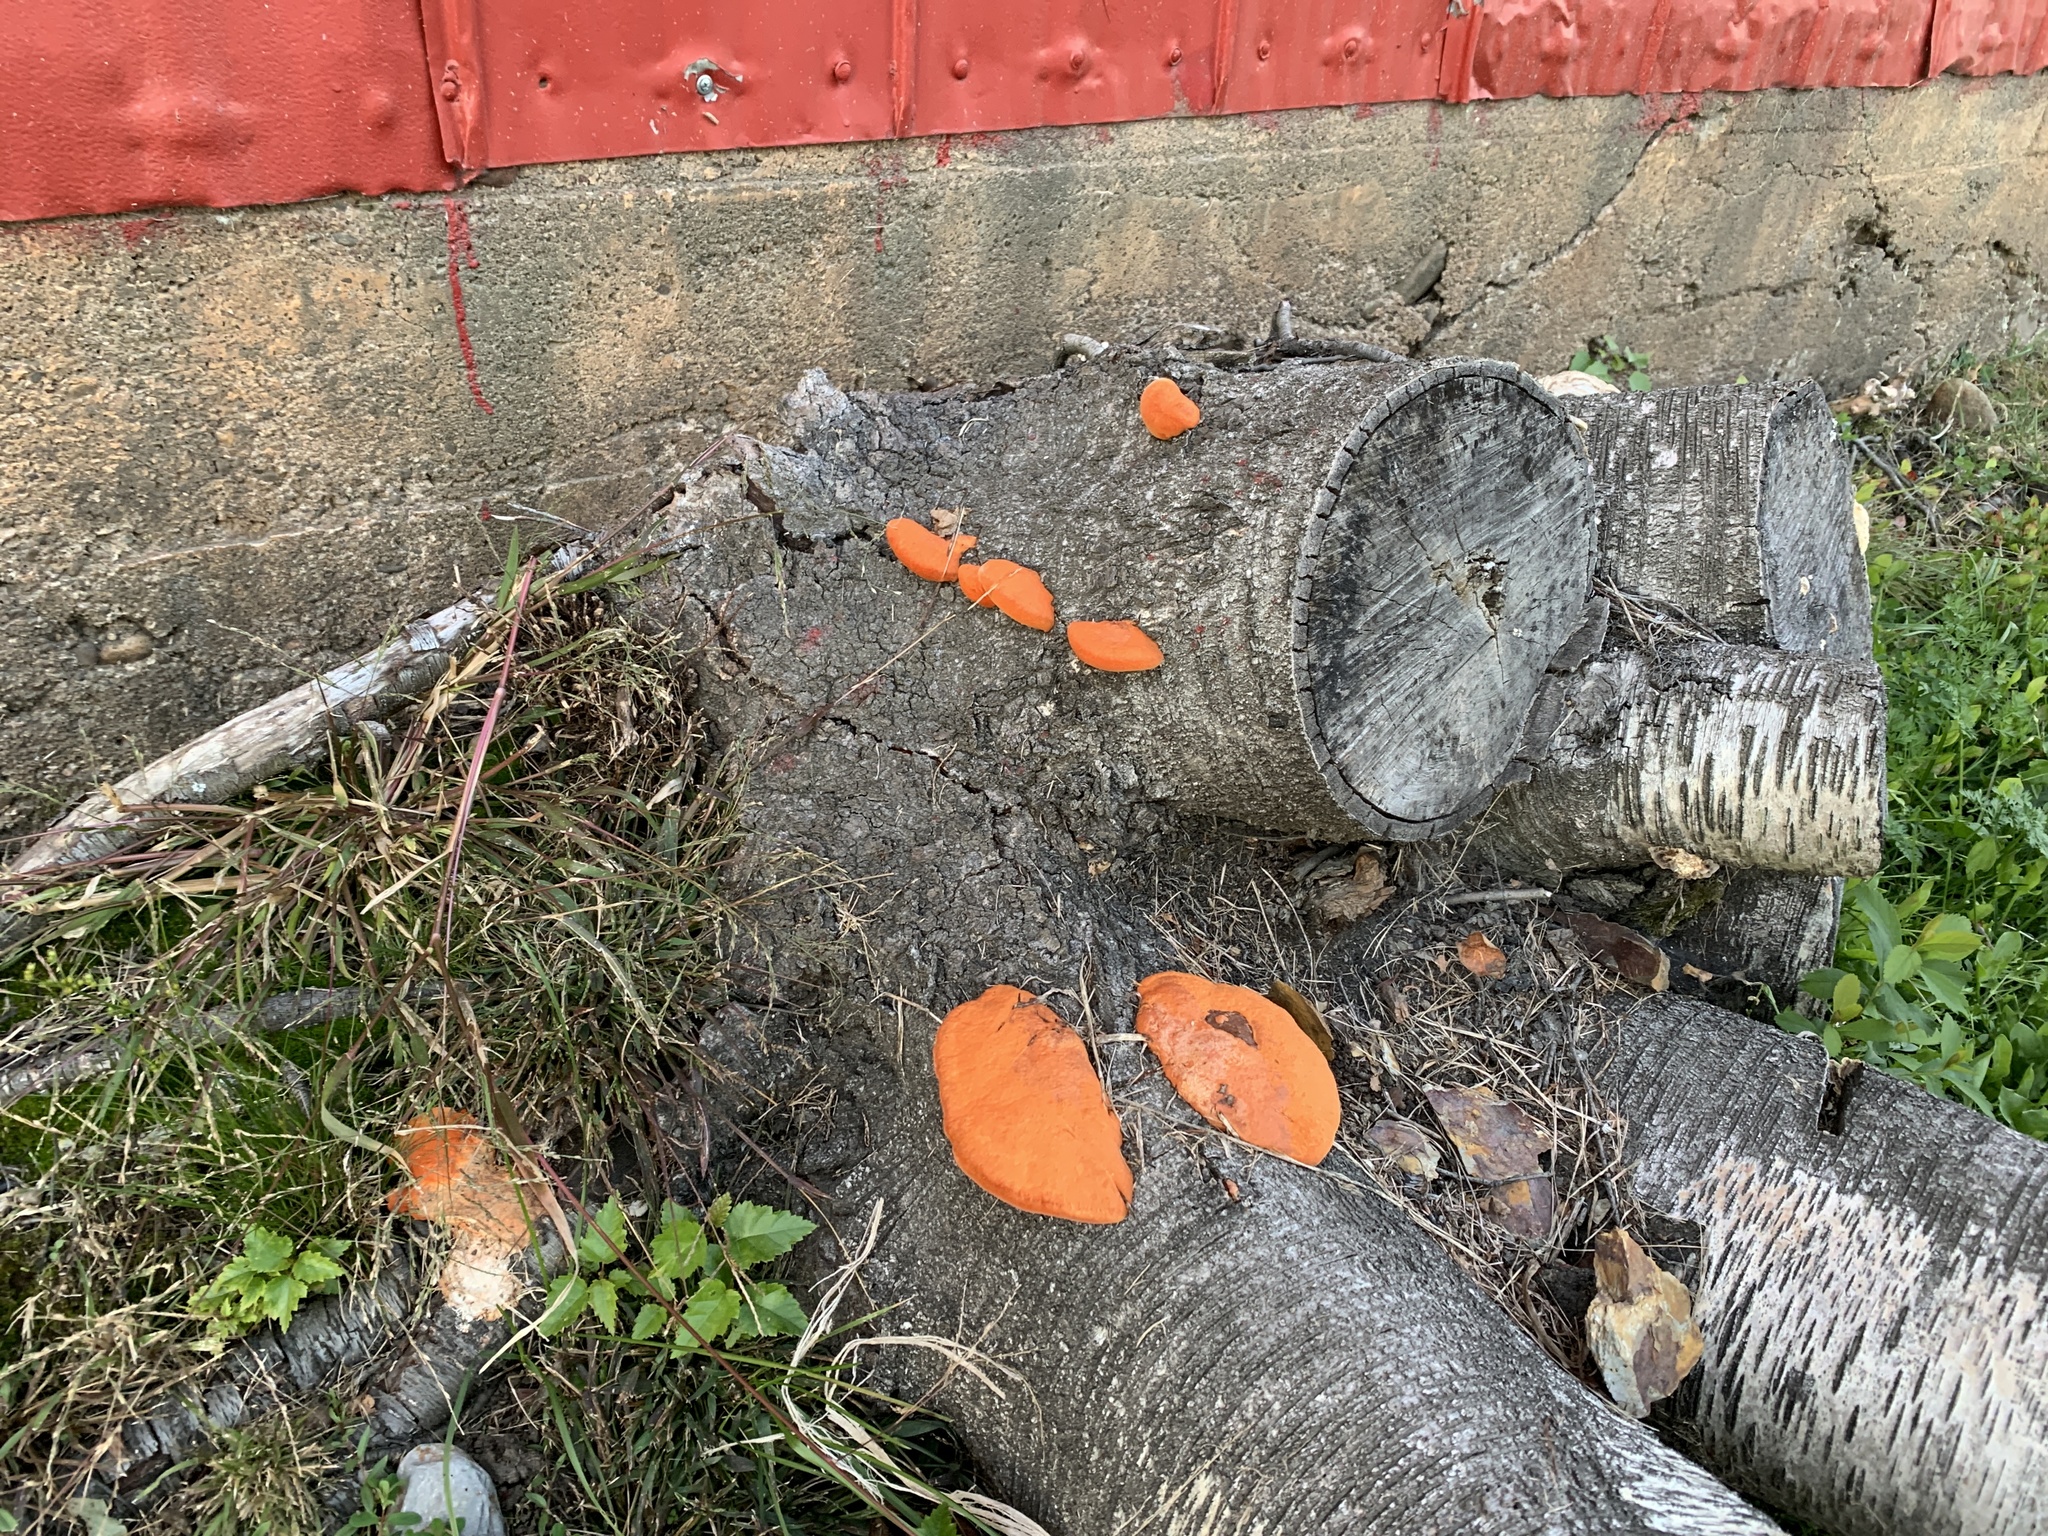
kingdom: Fungi
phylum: Basidiomycota
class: Agaricomycetes
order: Polyporales
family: Polyporaceae
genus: Trametes
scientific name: Trametes cinnabarina
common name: Northern cinnabar polypore
